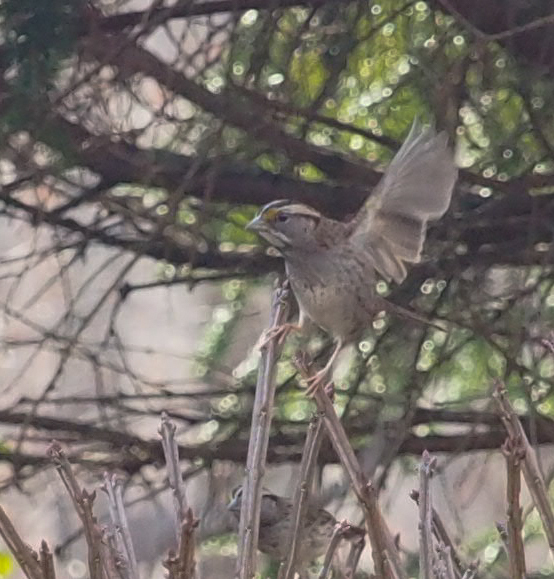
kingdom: Animalia
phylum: Chordata
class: Aves
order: Passeriformes
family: Passerellidae
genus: Zonotrichia
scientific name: Zonotrichia albicollis
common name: White-throated sparrow
